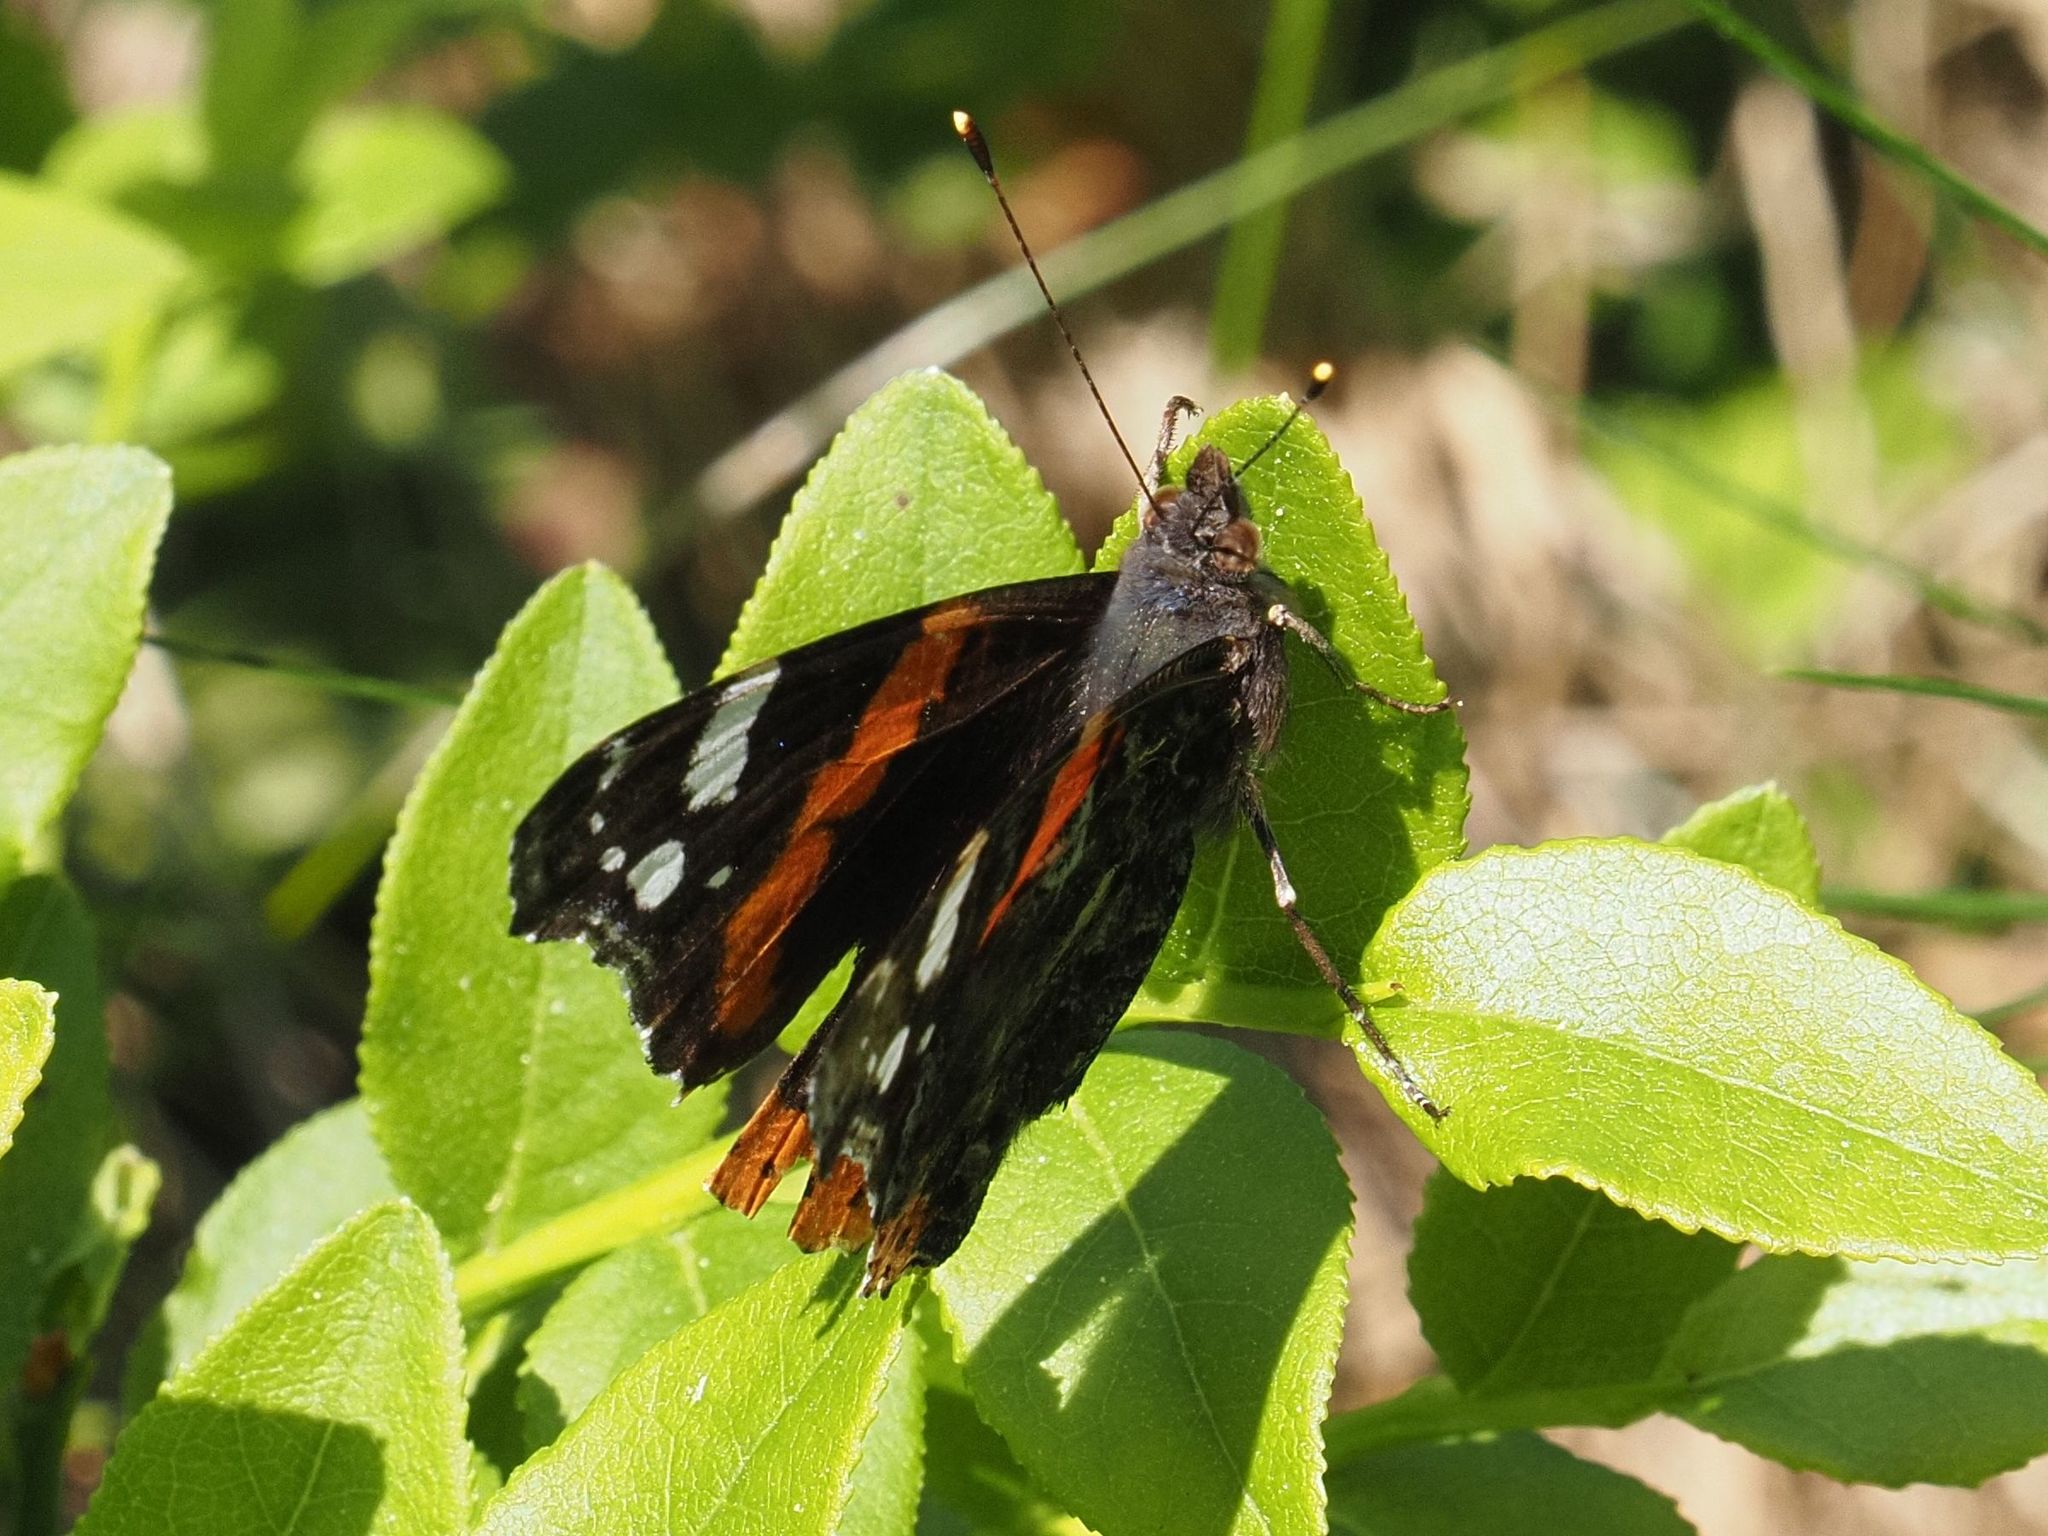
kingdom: Animalia
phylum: Arthropoda
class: Insecta
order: Lepidoptera
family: Nymphalidae
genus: Vanessa
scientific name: Vanessa atalanta
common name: Red admiral
